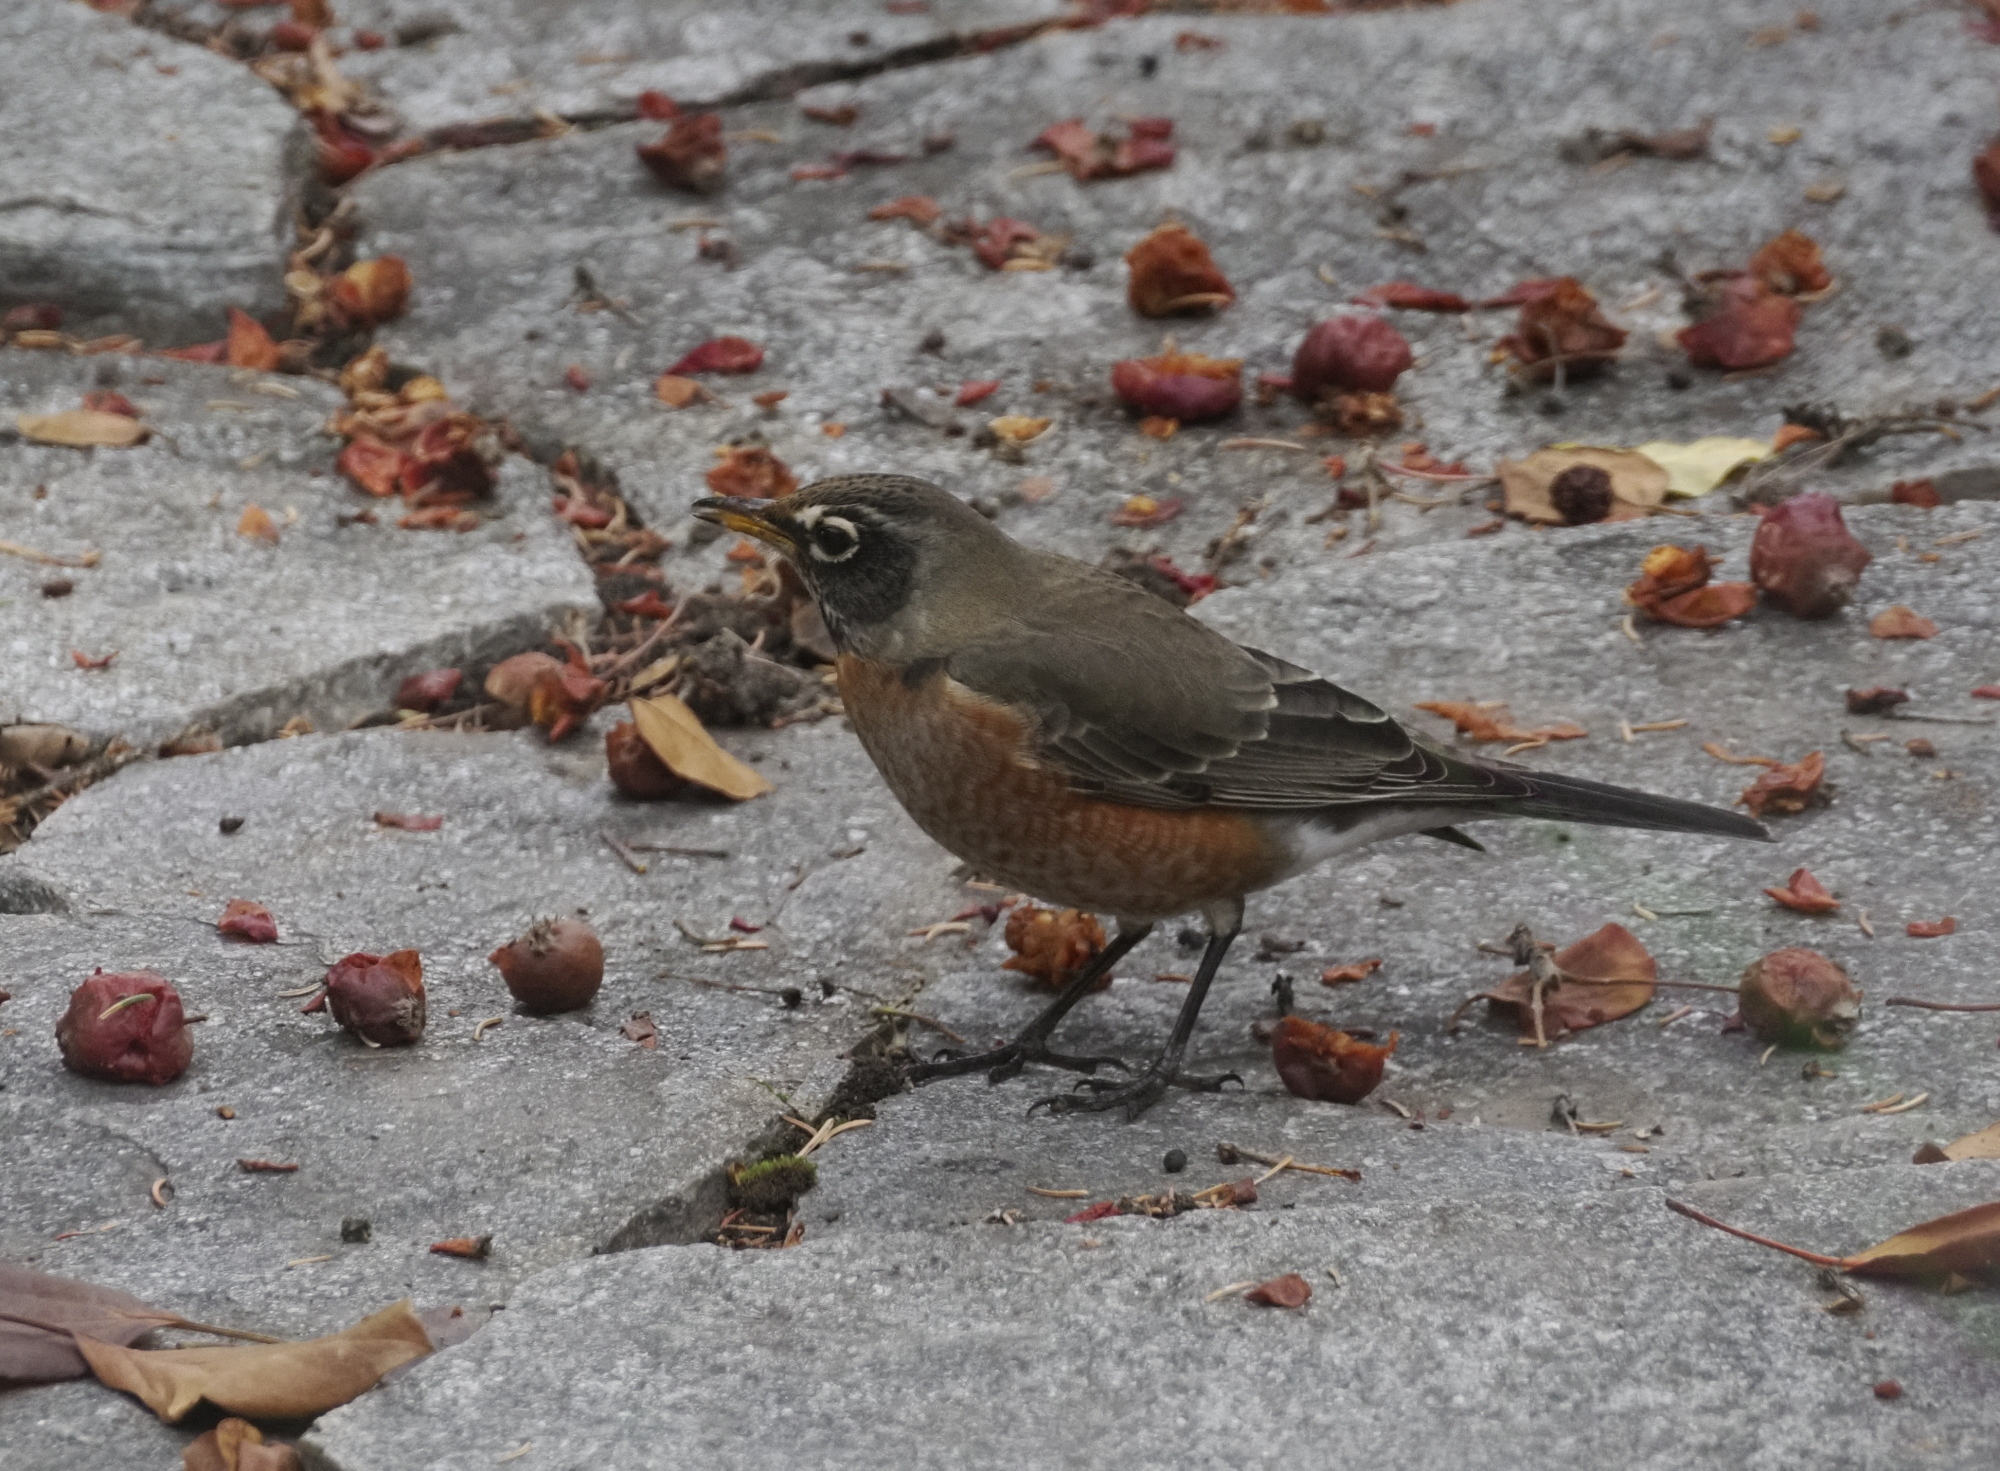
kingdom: Animalia
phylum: Chordata
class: Aves
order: Passeriformes
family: Turdidae
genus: Turdus
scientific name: Turdus migratorius
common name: American robin
